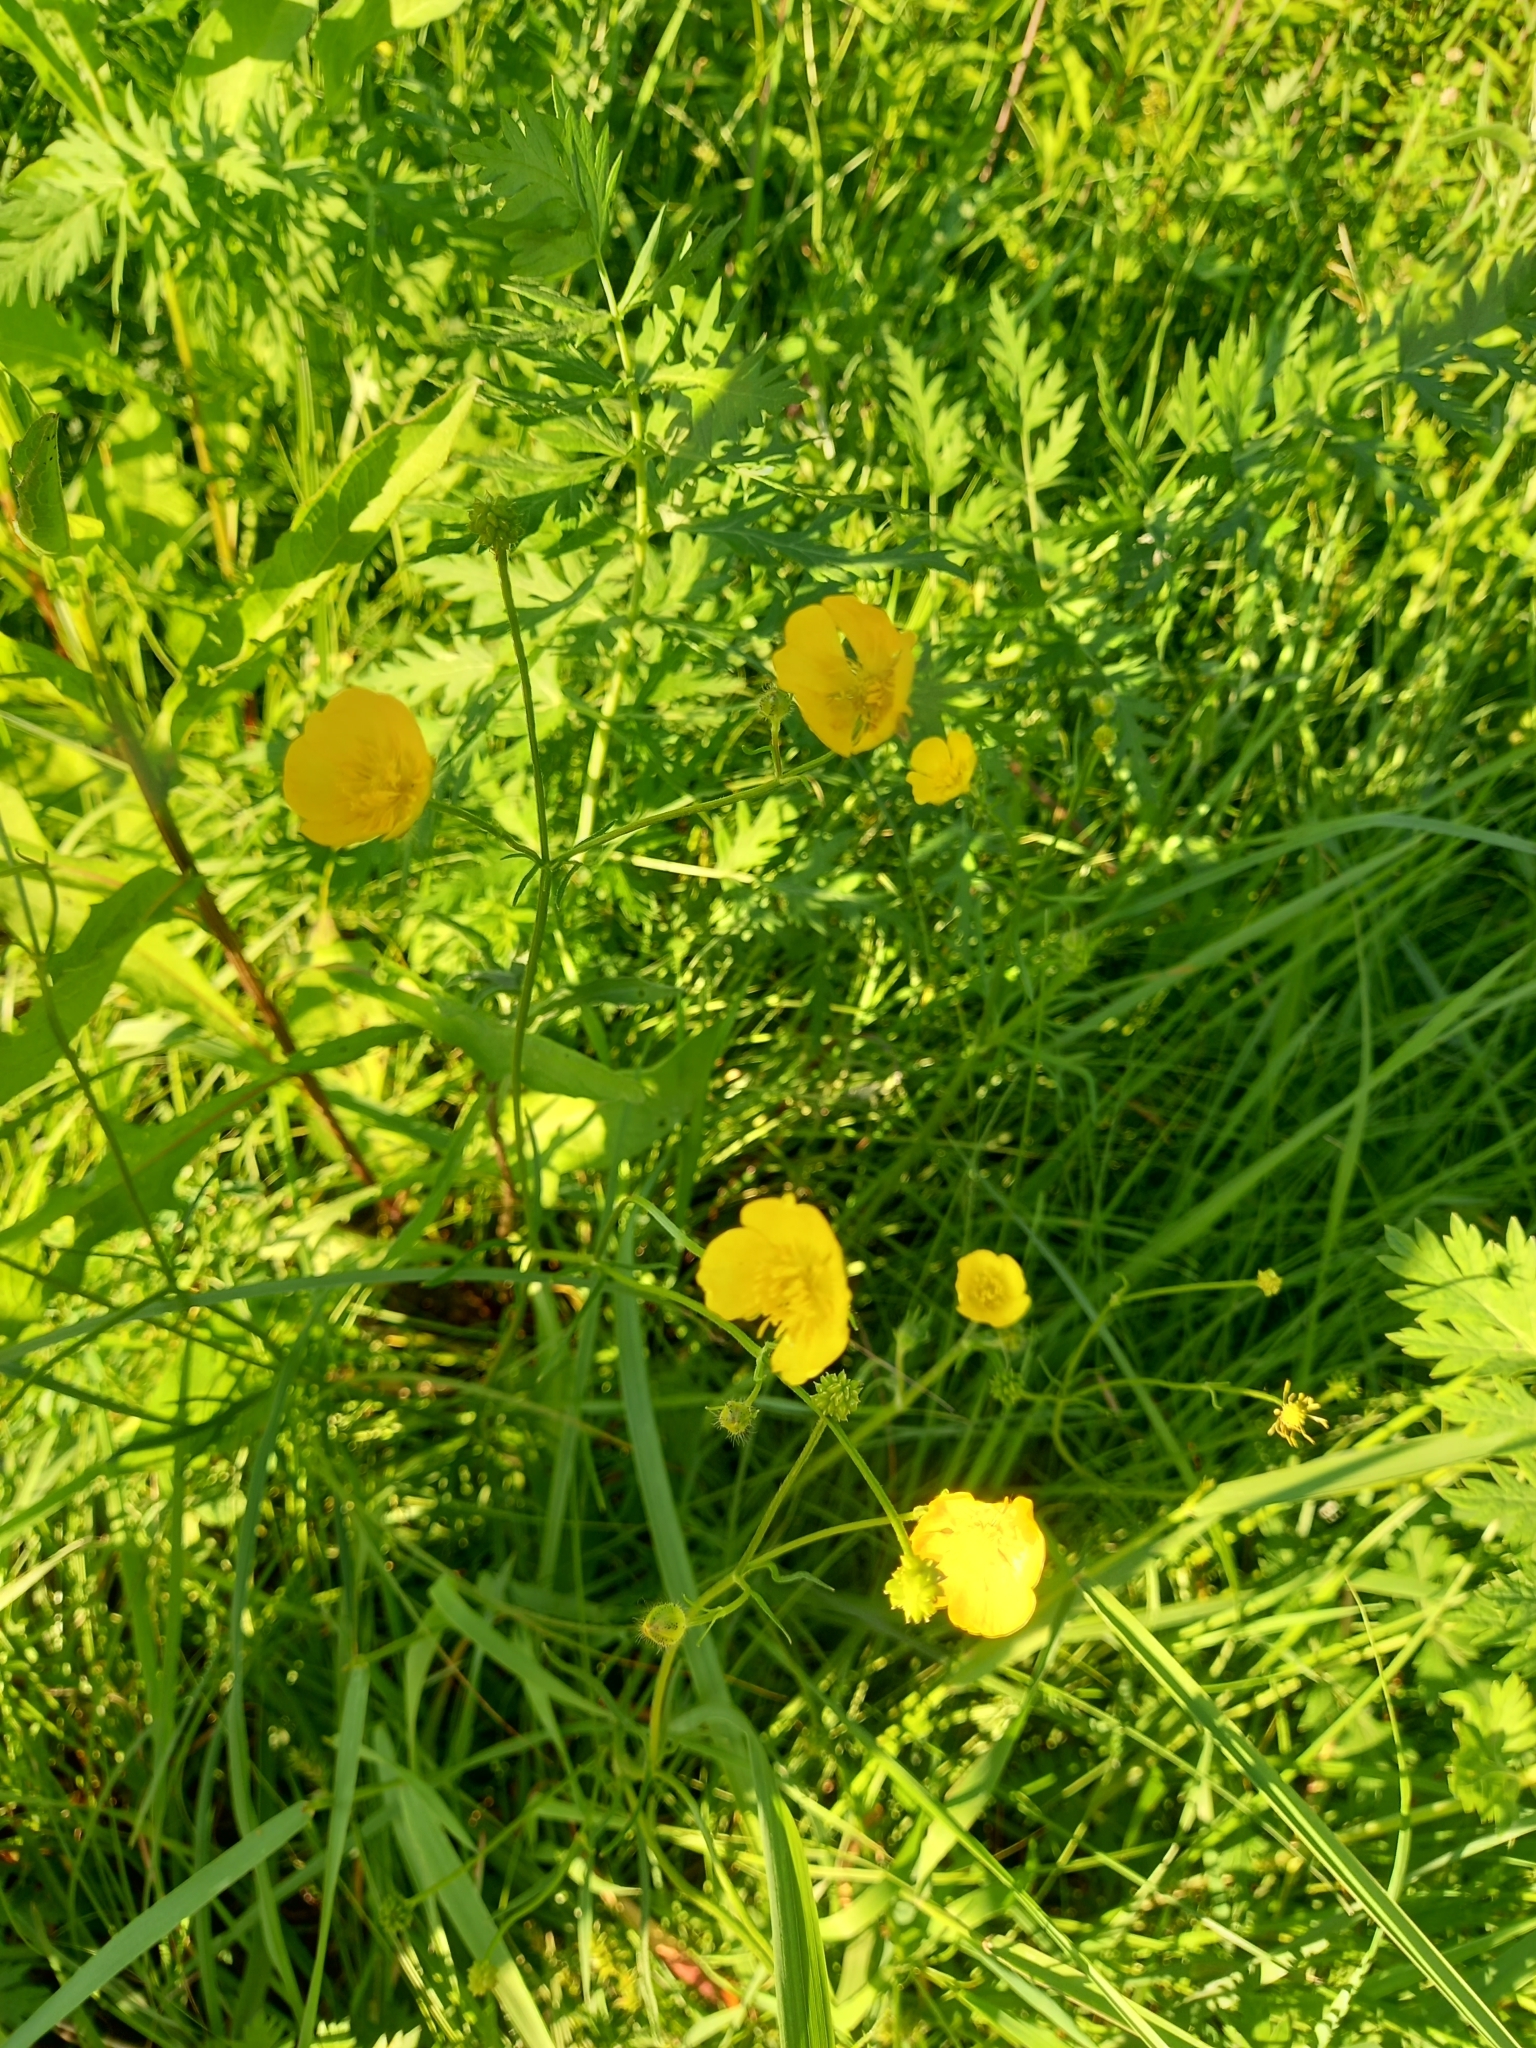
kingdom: Plantae
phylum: Tracheophyta
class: Magnoliopsida
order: Ranunculales
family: Ranunculaceae
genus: Ranunculus
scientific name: Ranunculus polyanthemos
